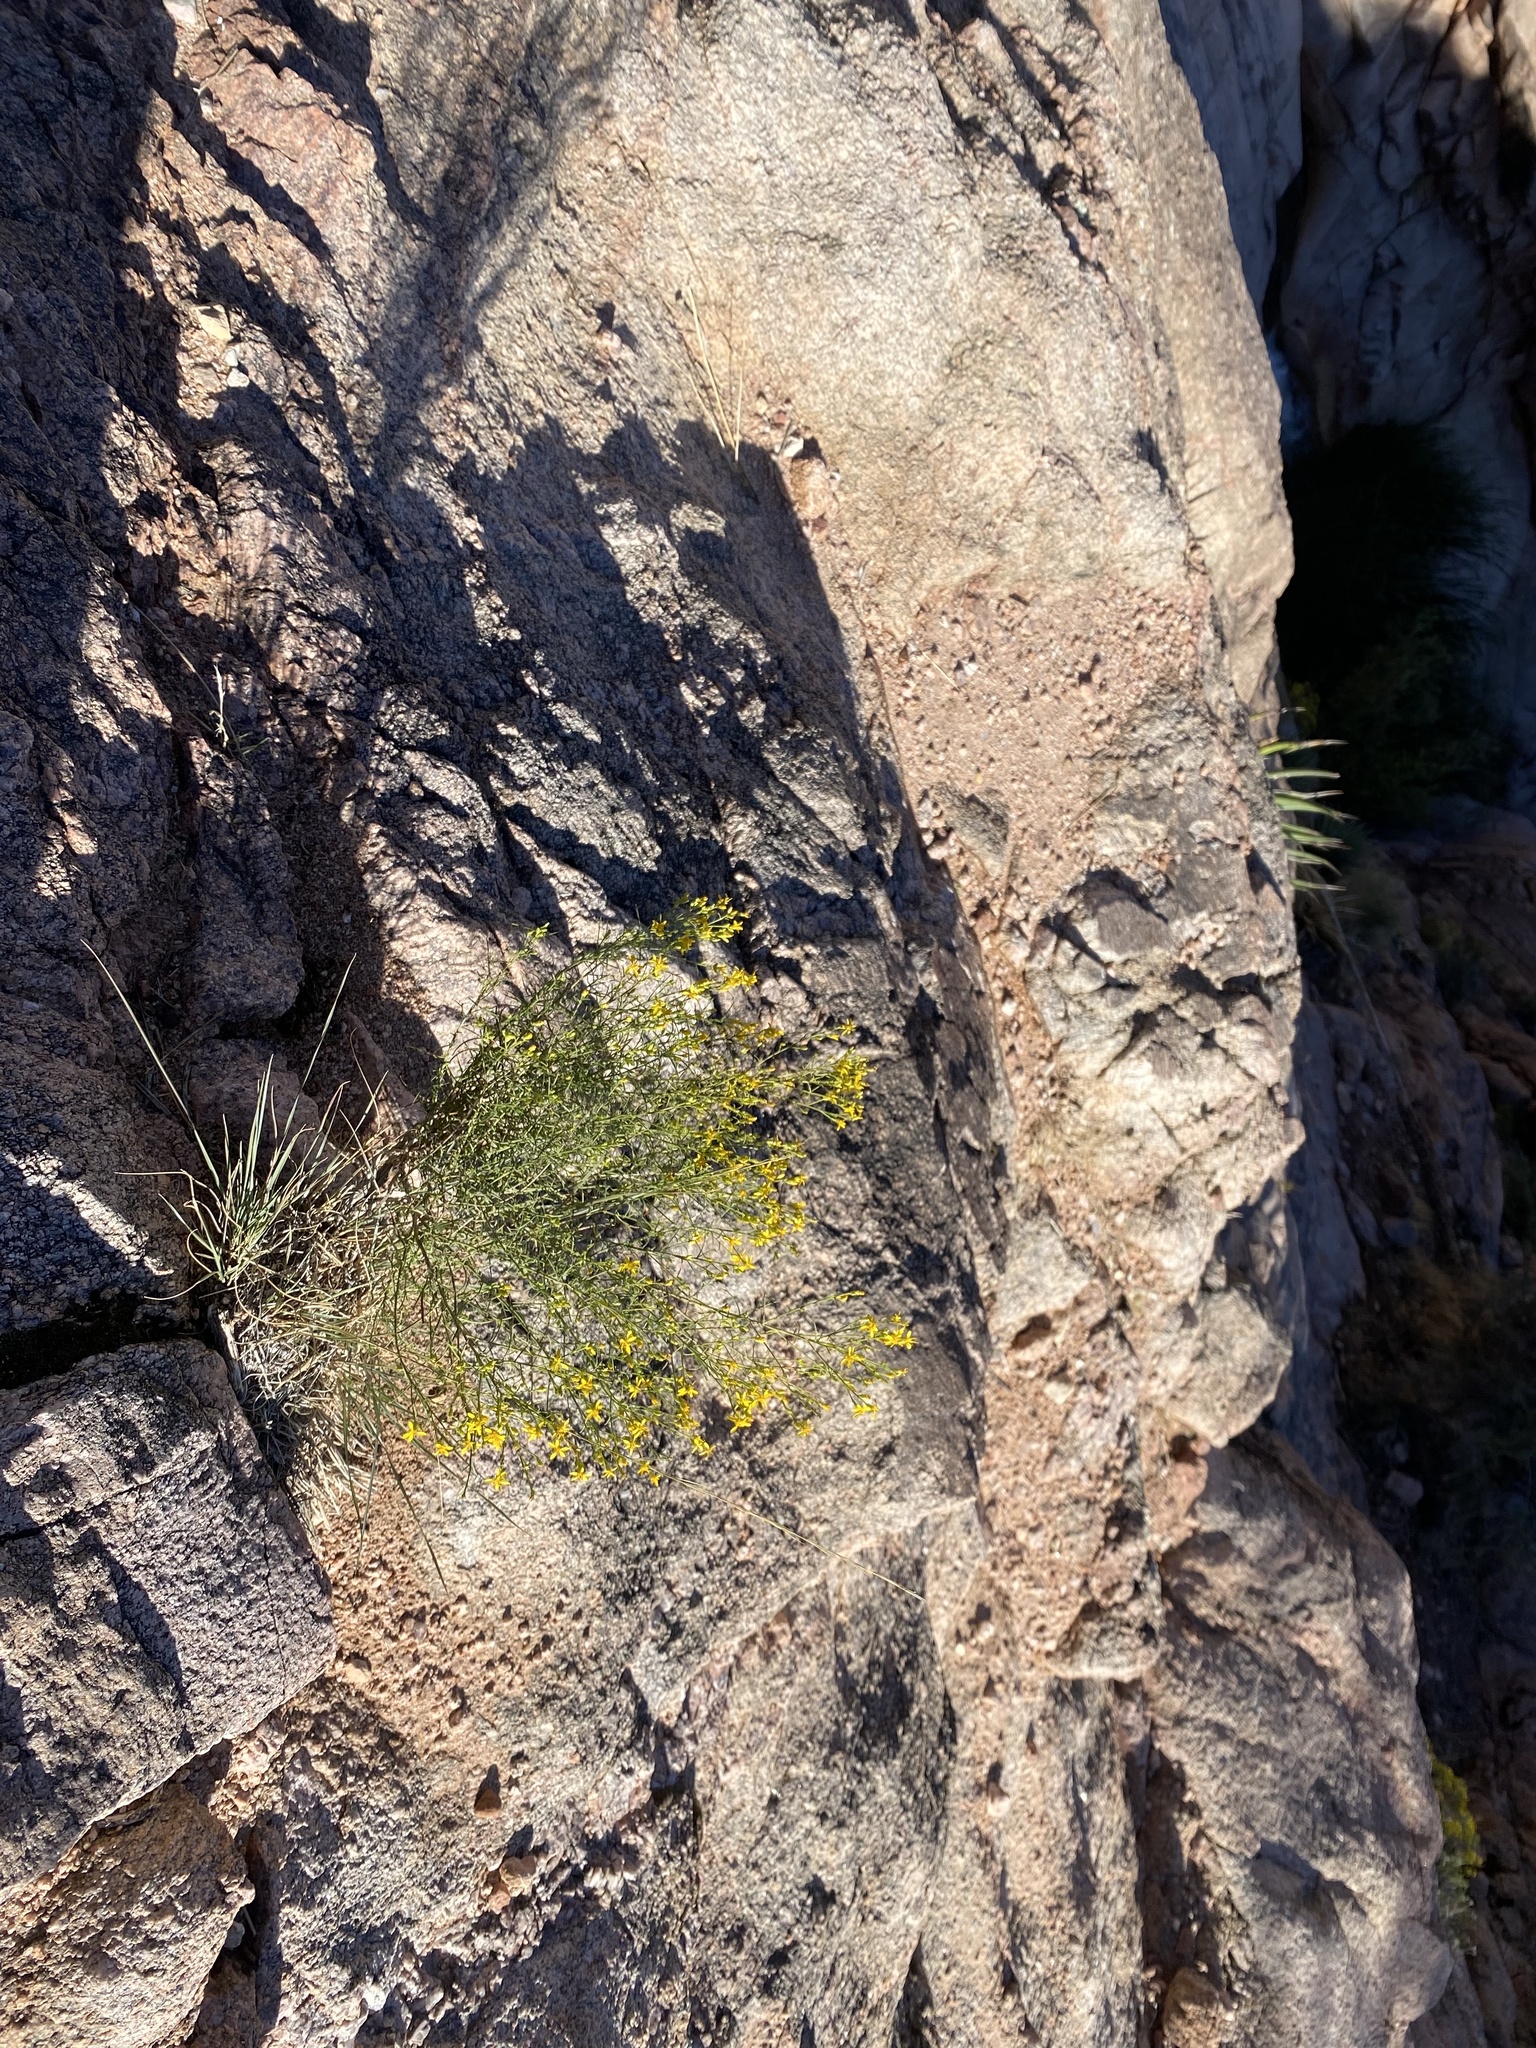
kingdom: Plantae
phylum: Tracheophyta
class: Magnoliopsida
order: Asterales
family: Asteraceae
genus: Gutierrezia
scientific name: Gutierrezia sarothrae
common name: Broom snakeweed
